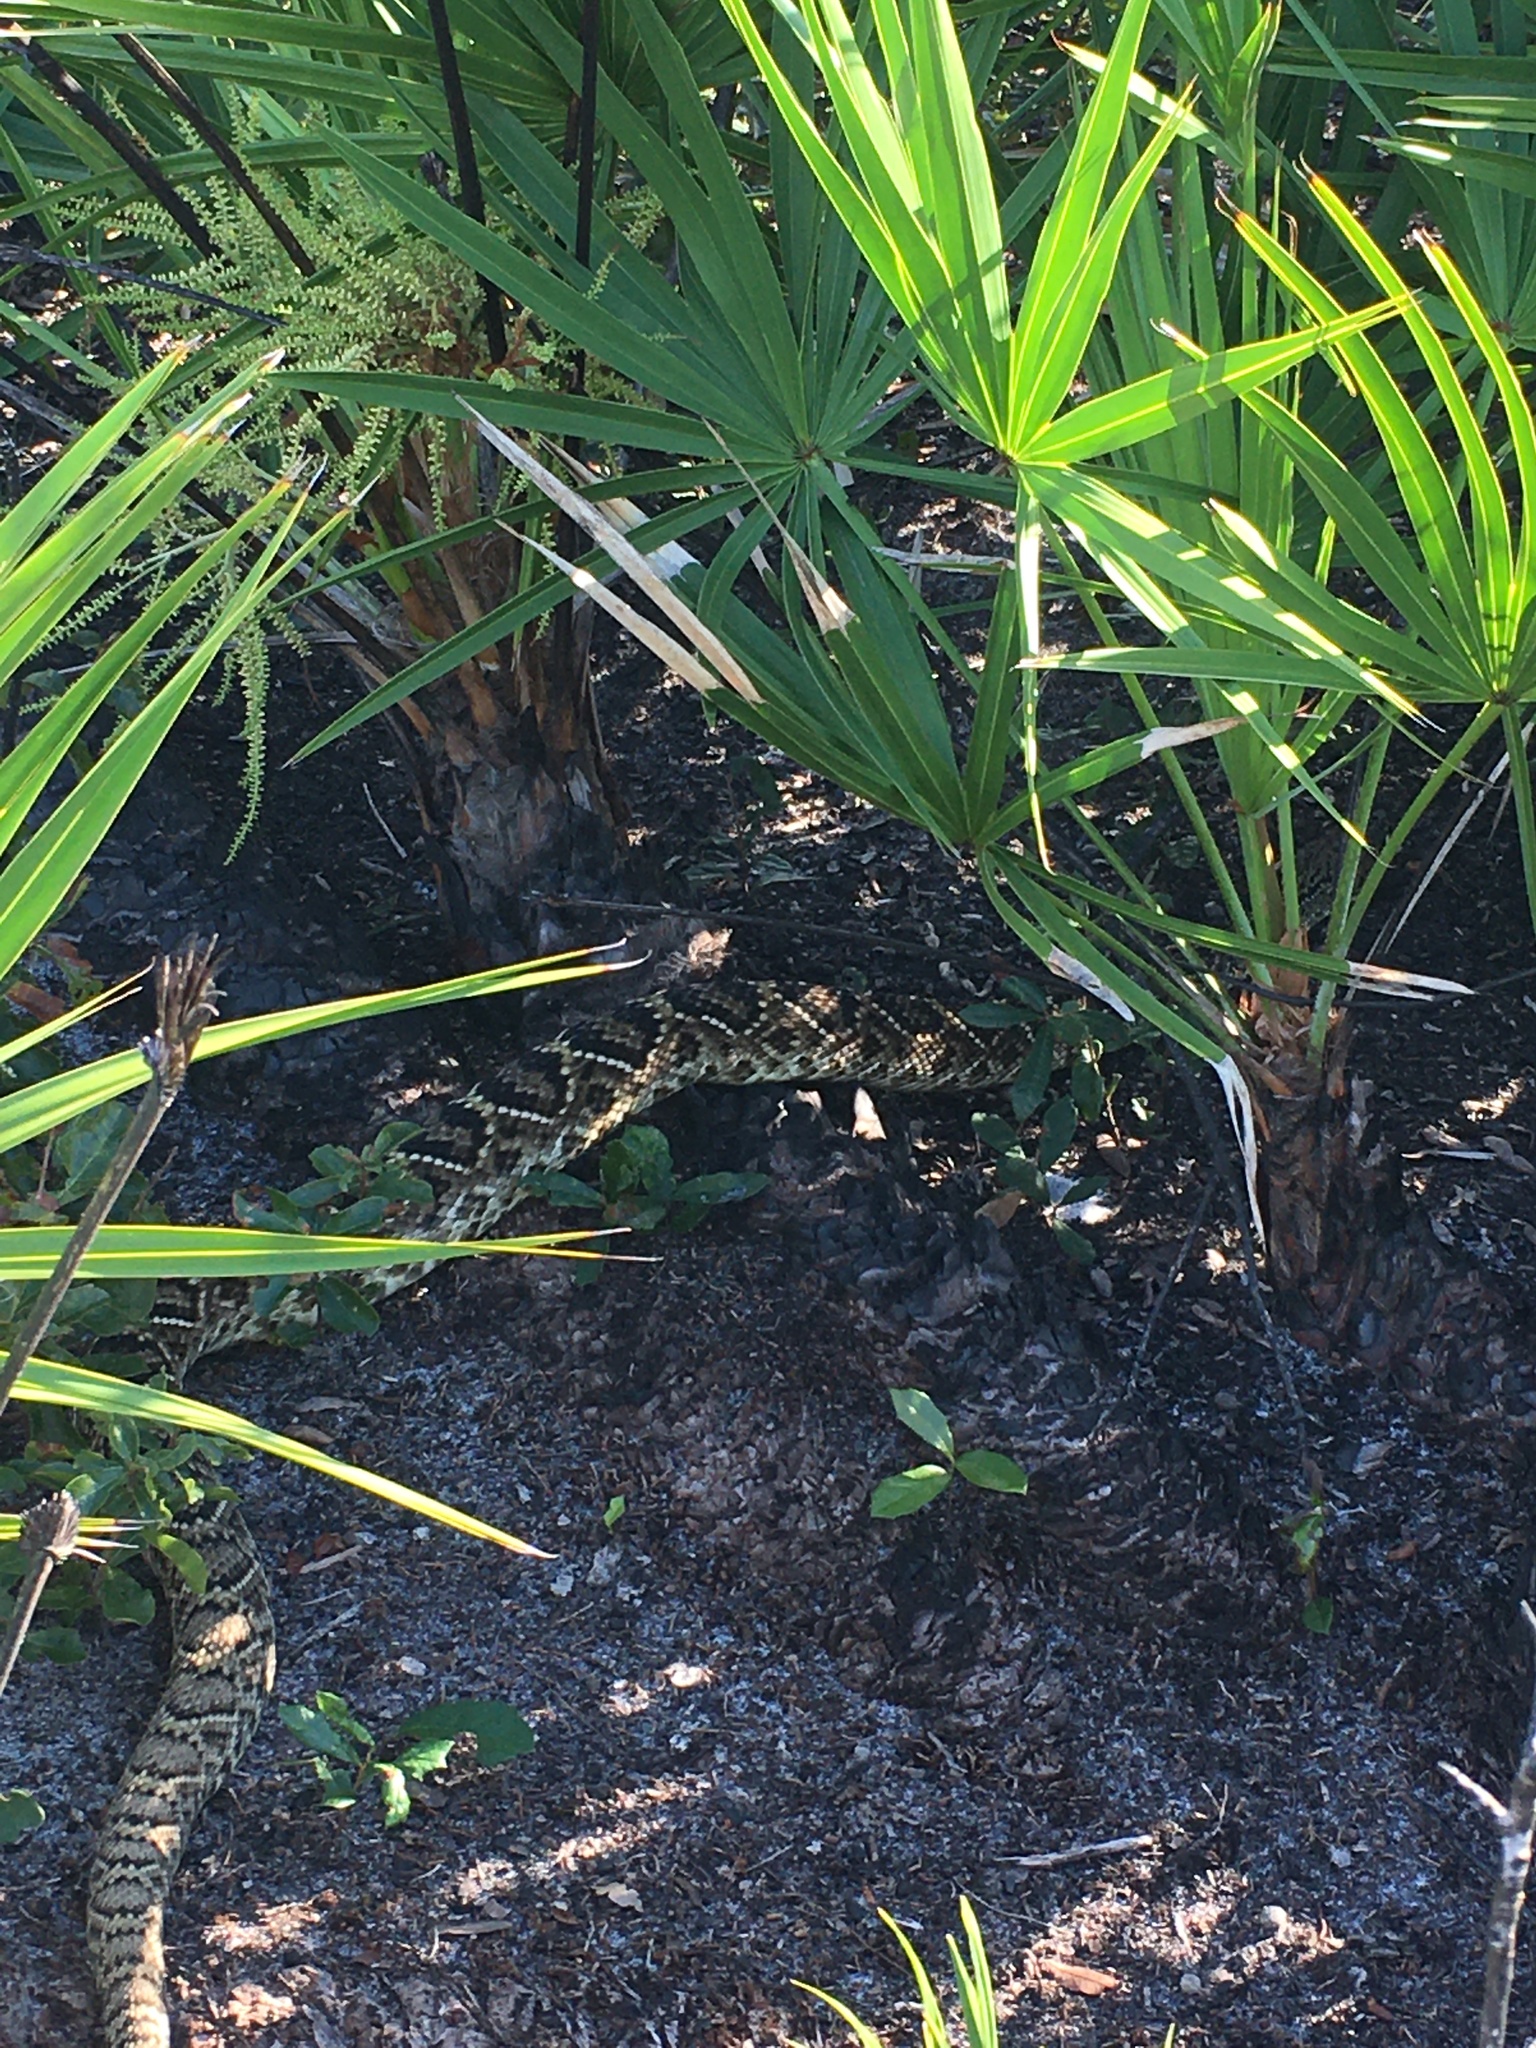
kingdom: Animalia
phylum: Chordata
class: Squamata
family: Viperidae
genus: Crotalus
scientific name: Crotalus adamanteus
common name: Eastern diamondback rattlesnake
